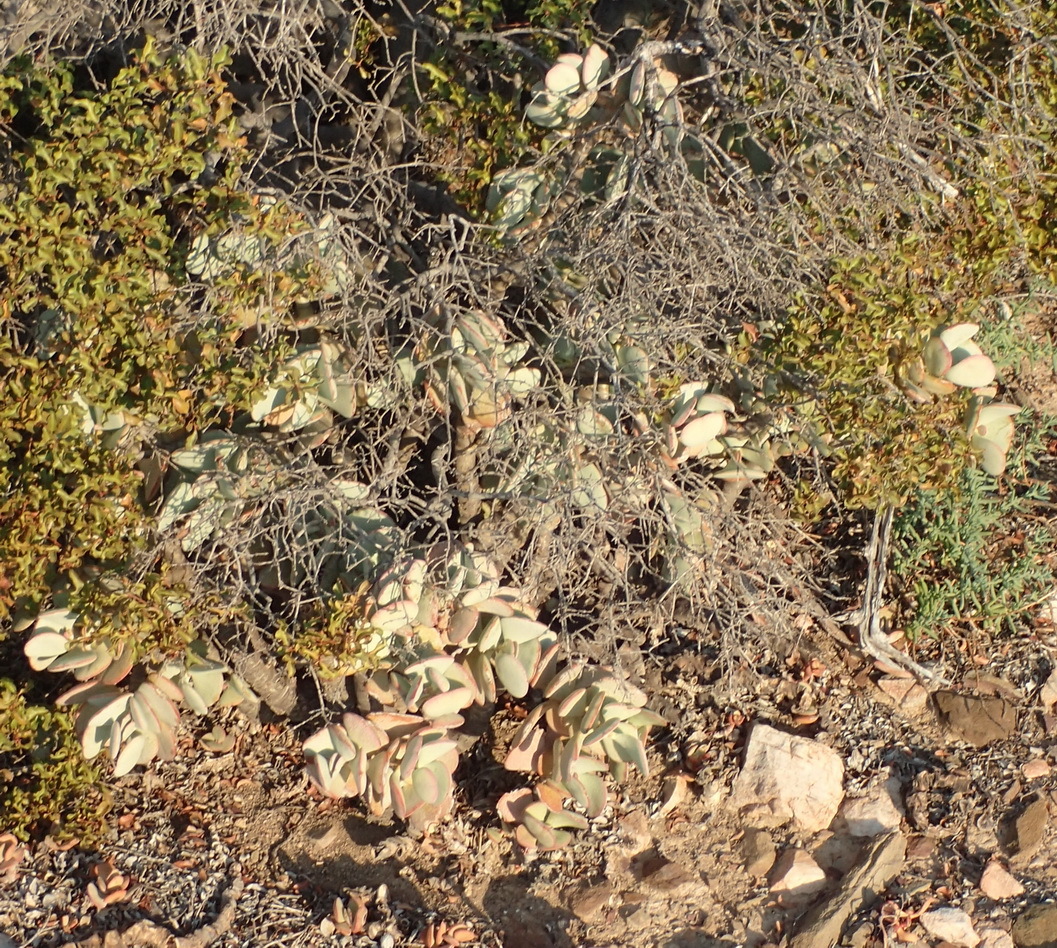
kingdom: Plantae
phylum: Tracheophyta
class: Magnoliopsida
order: Saxifragales
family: Crassulaceae
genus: Crassula
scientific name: Crassula arborescens
